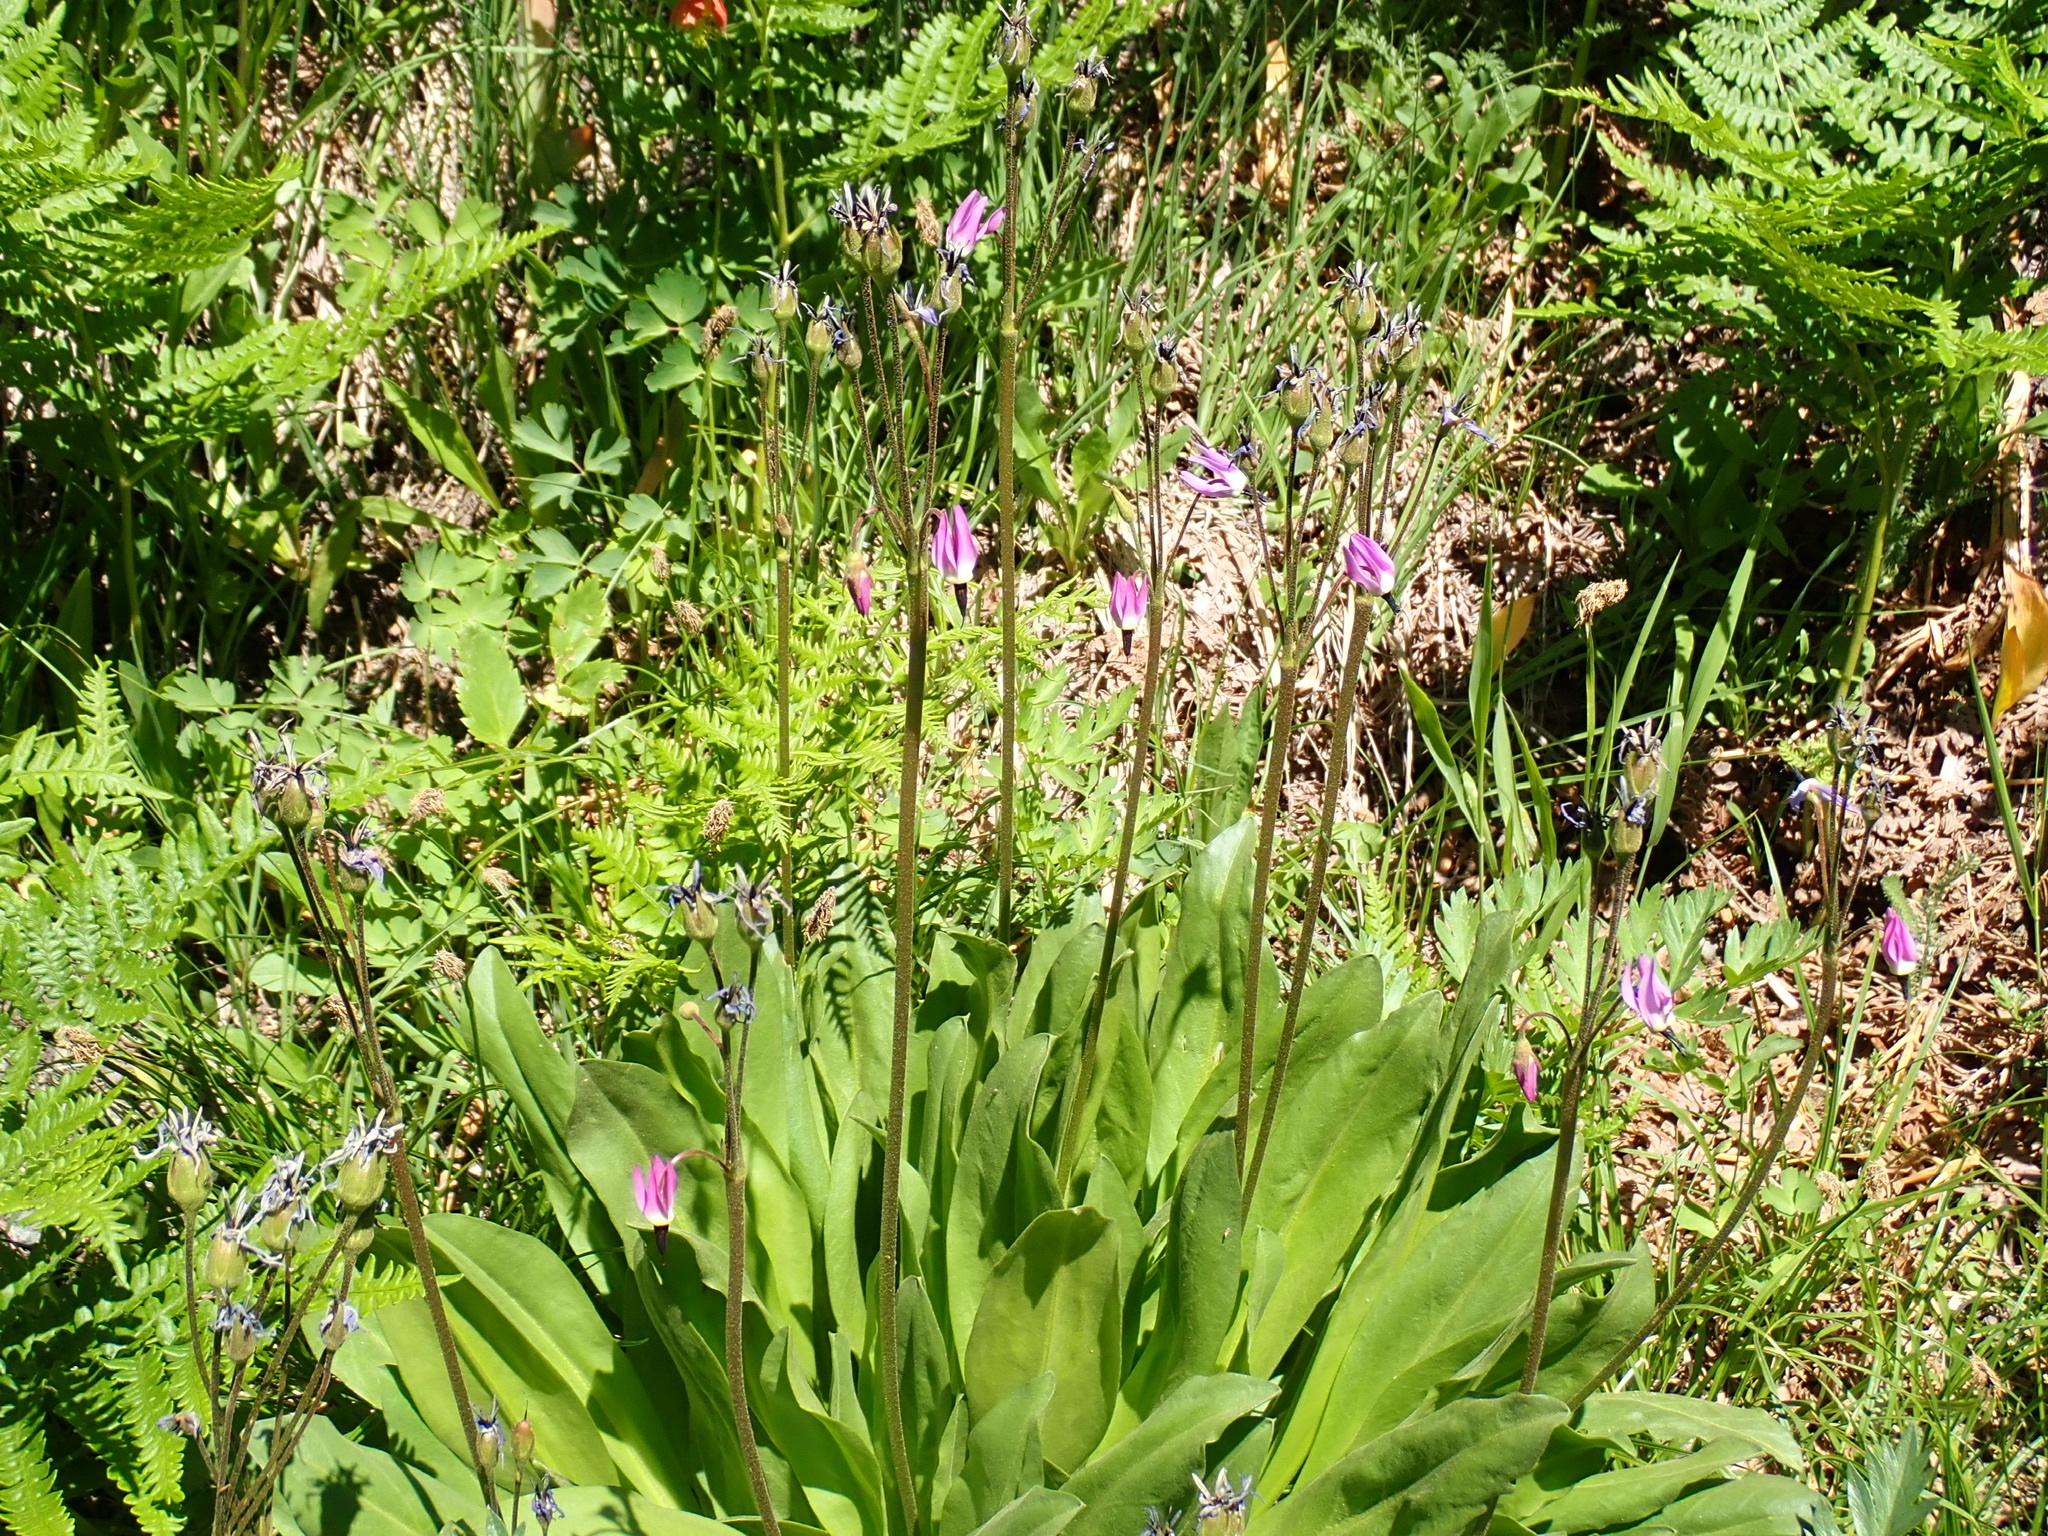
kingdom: Plantae
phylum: Tracheophyta
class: Magnoliopsida
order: Ericales
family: Primulaceae
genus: Dodecatheon
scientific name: Dodecatheon jeffreyanum
